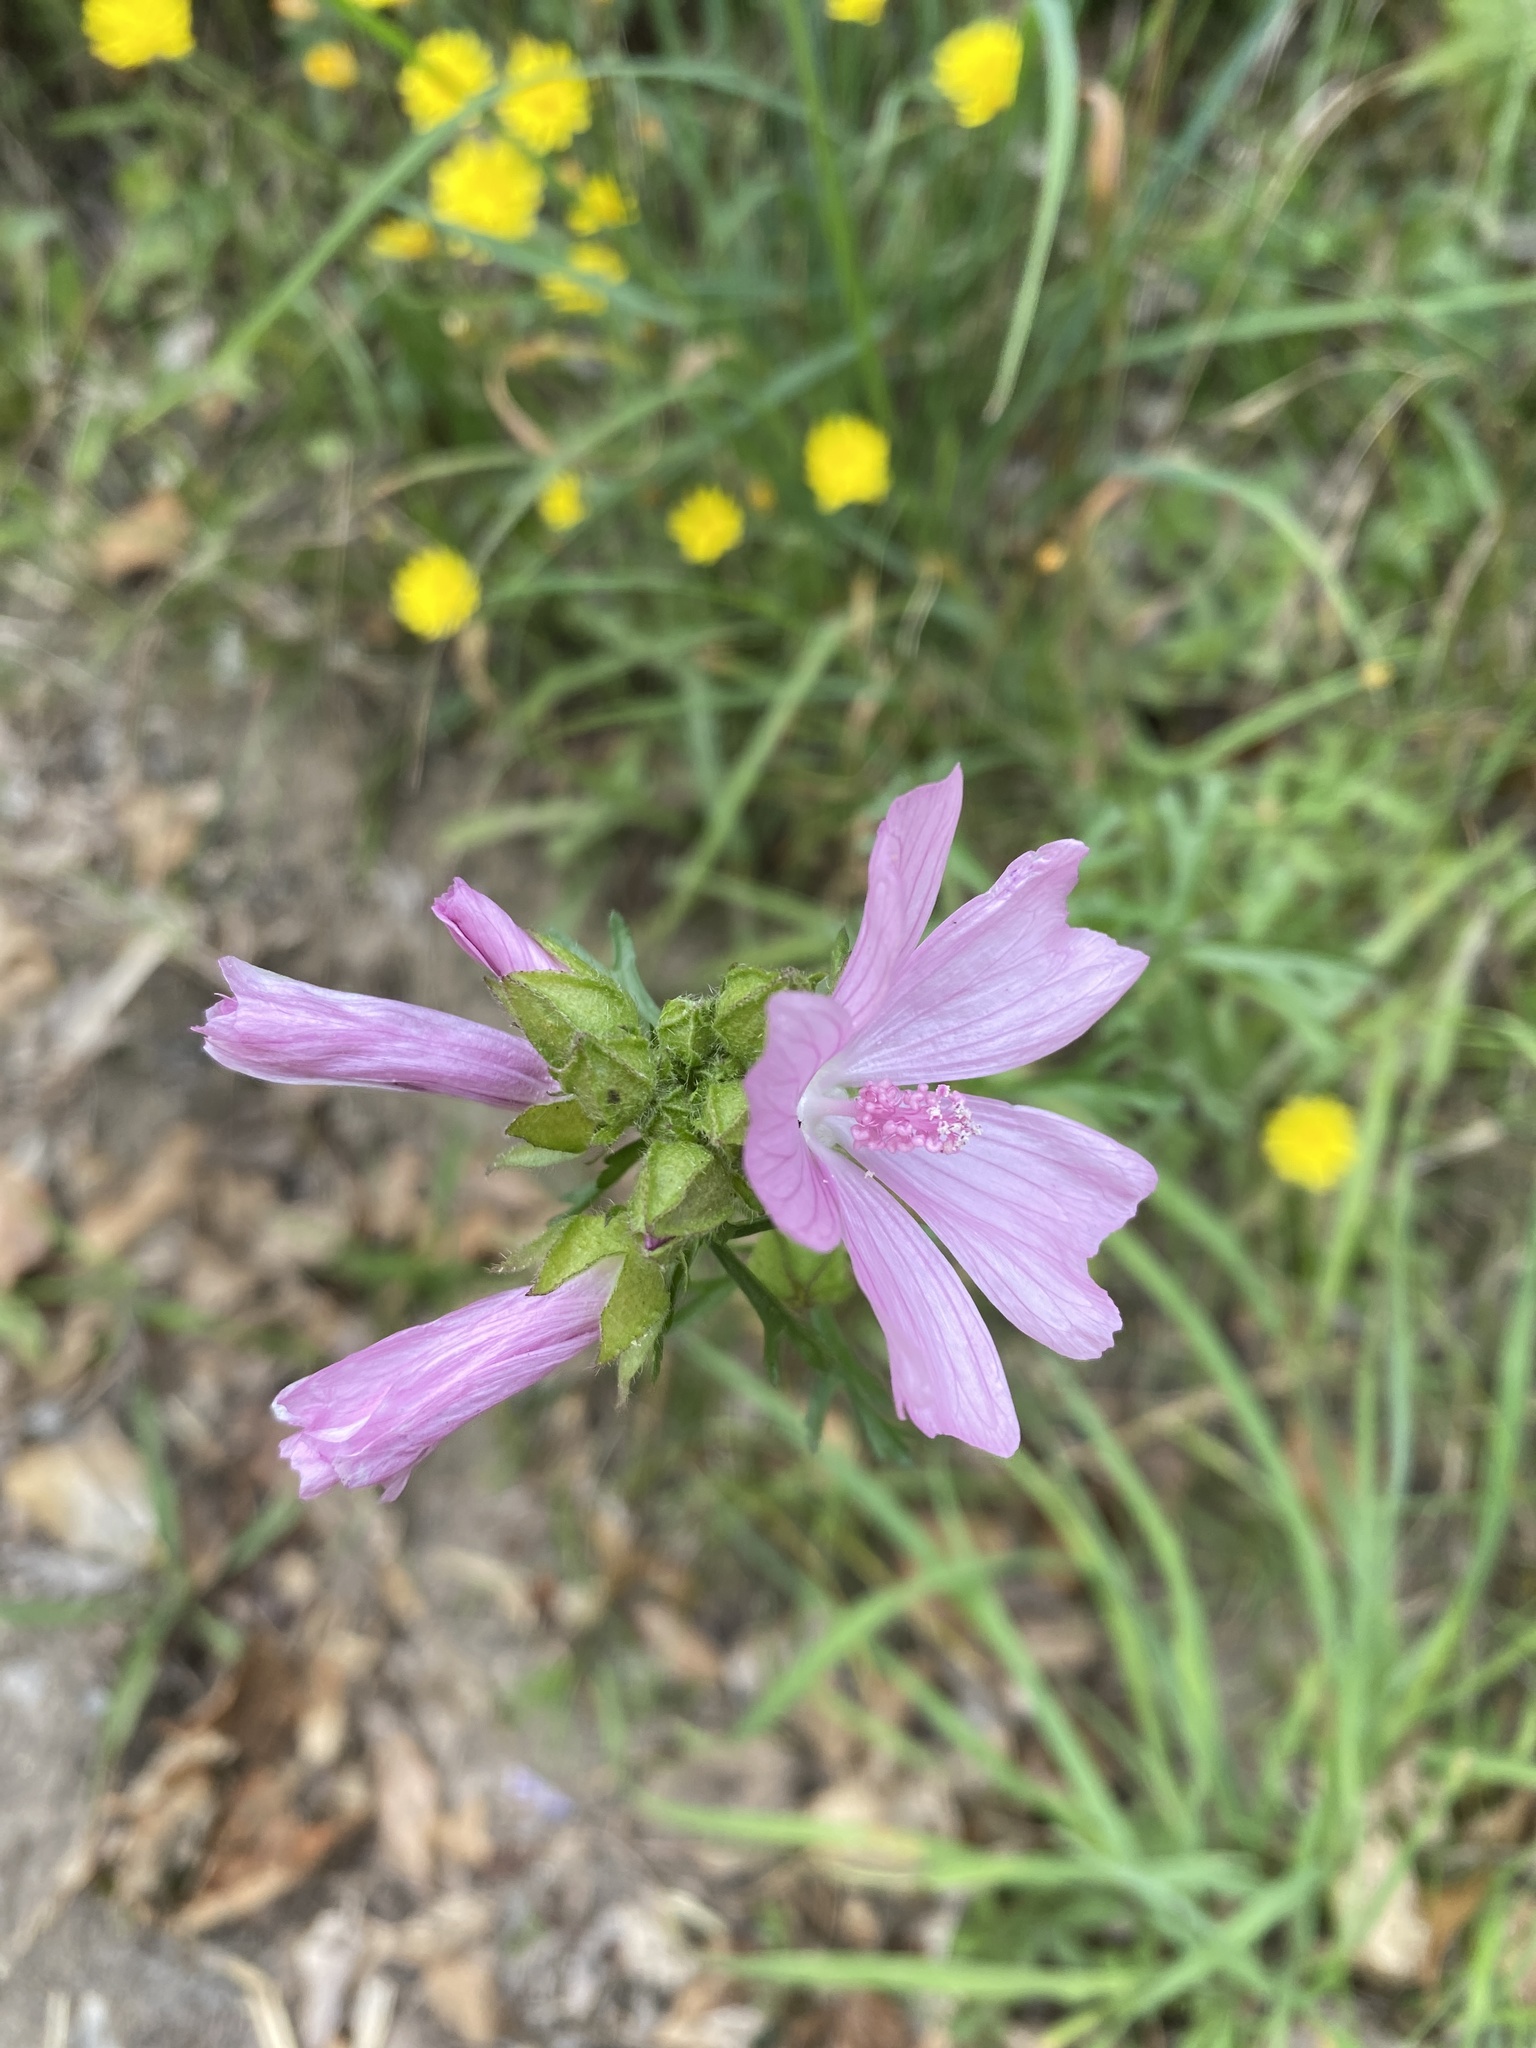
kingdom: Plantae
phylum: Tracheophyta
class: Magnoliopsida
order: Malvales
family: Malvaceae
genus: Malva
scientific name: Malva moschata
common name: Musk mallow
